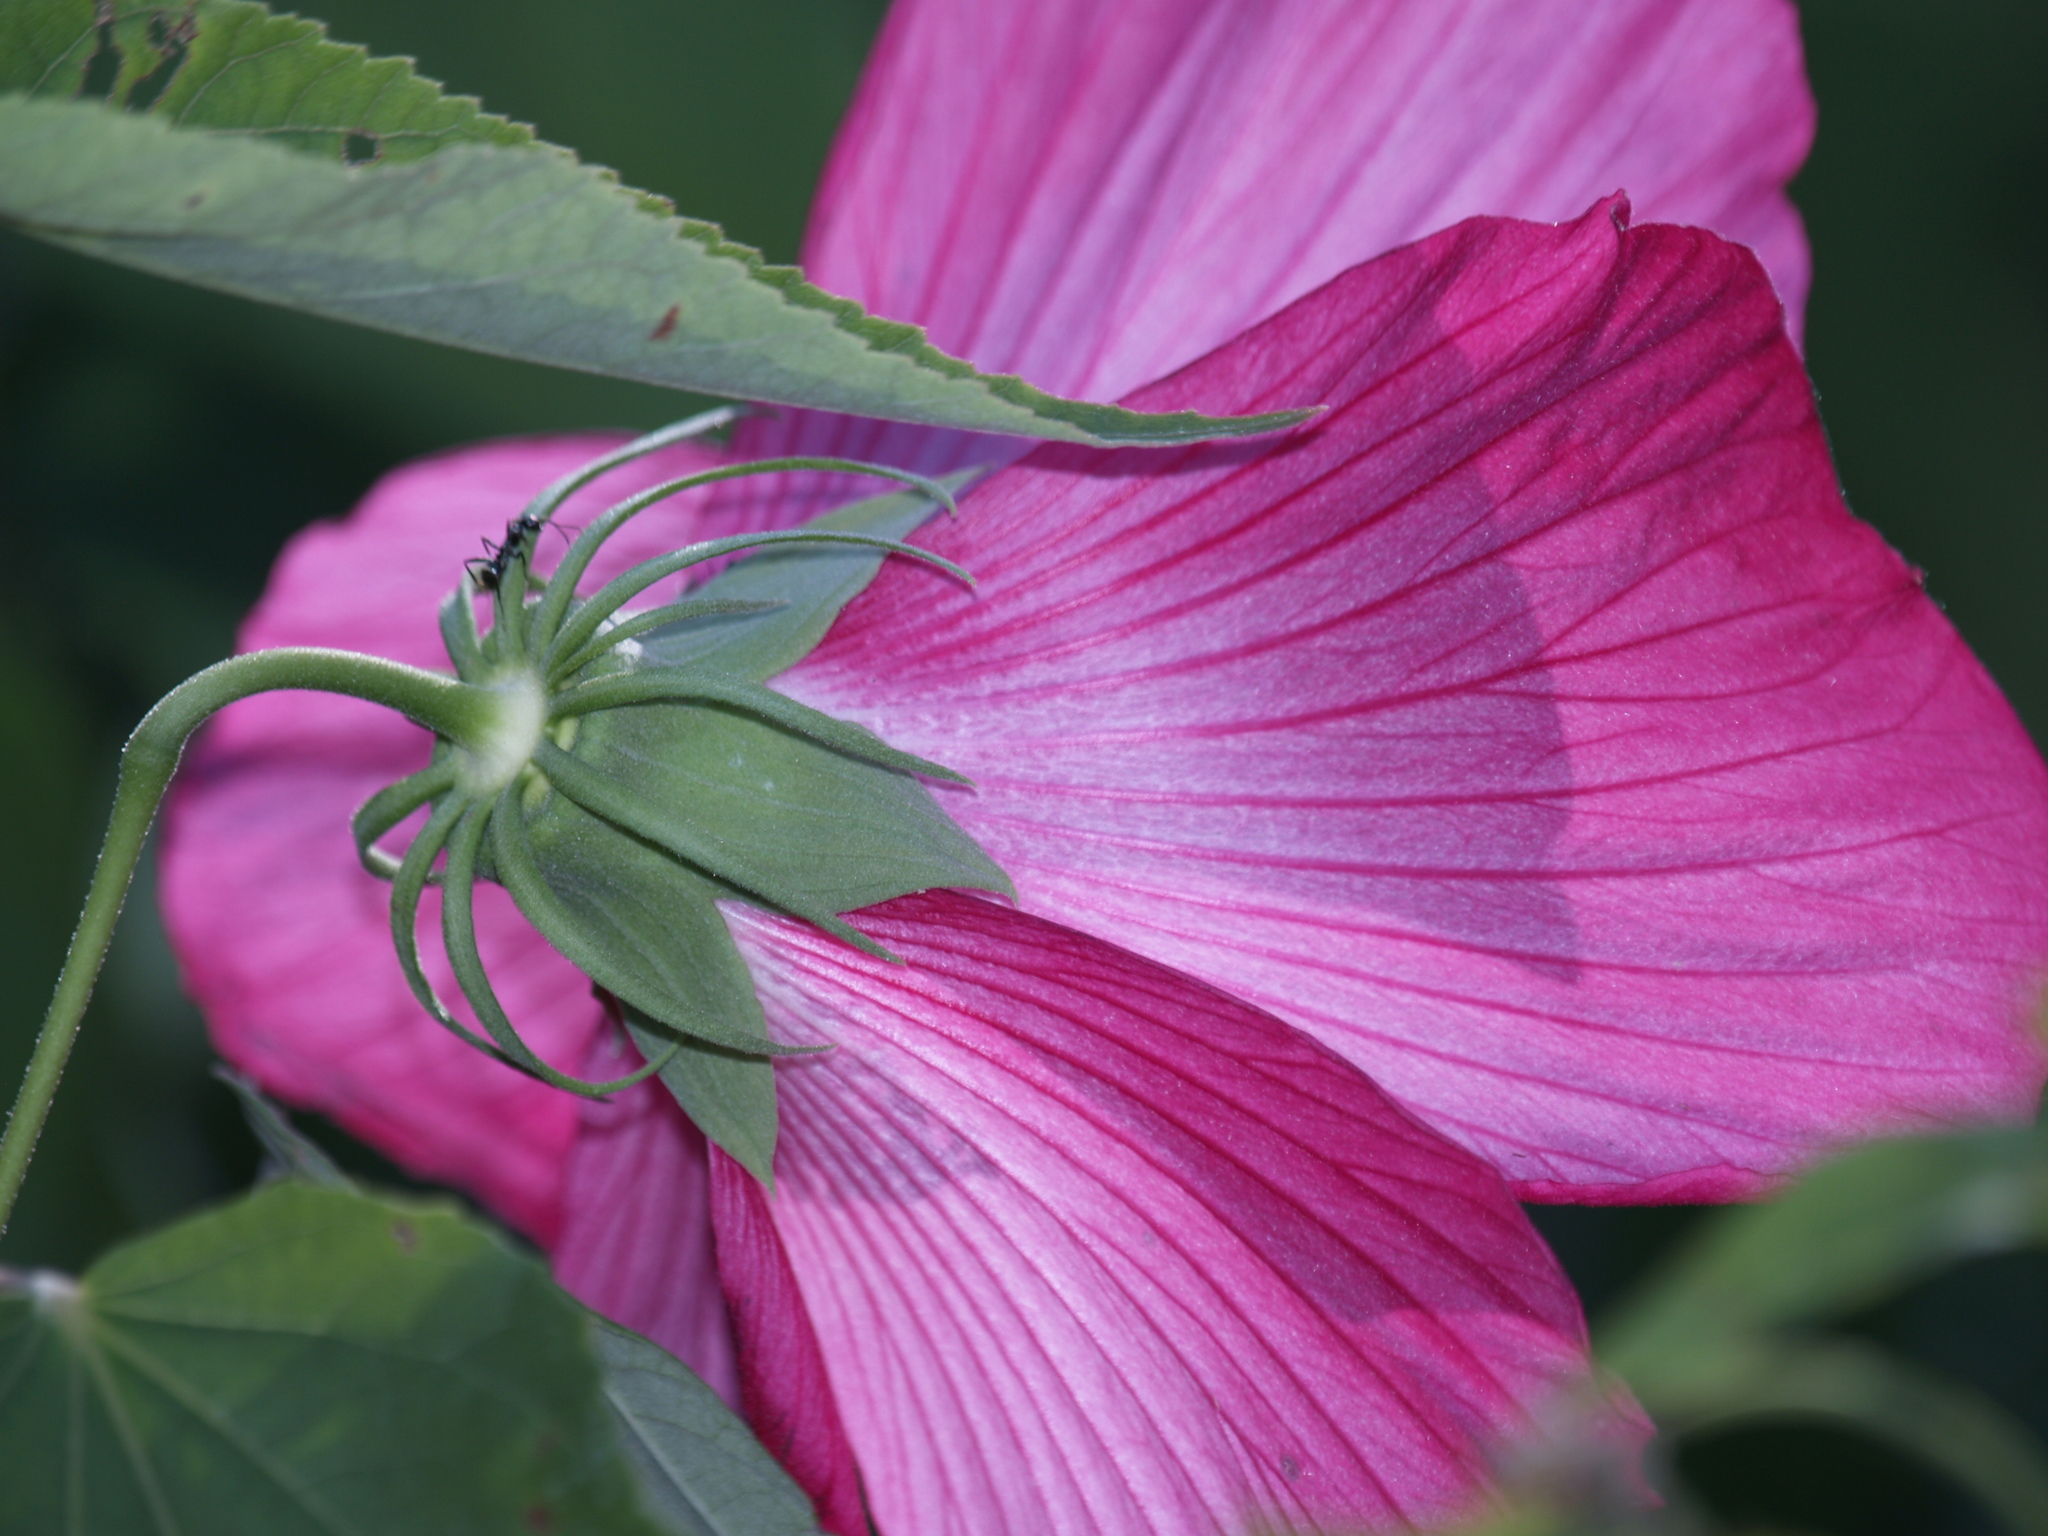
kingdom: Animalia
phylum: Arthropoda
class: Insecta
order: Hymenoptera
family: Formicidae
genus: Formica
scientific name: Formica
